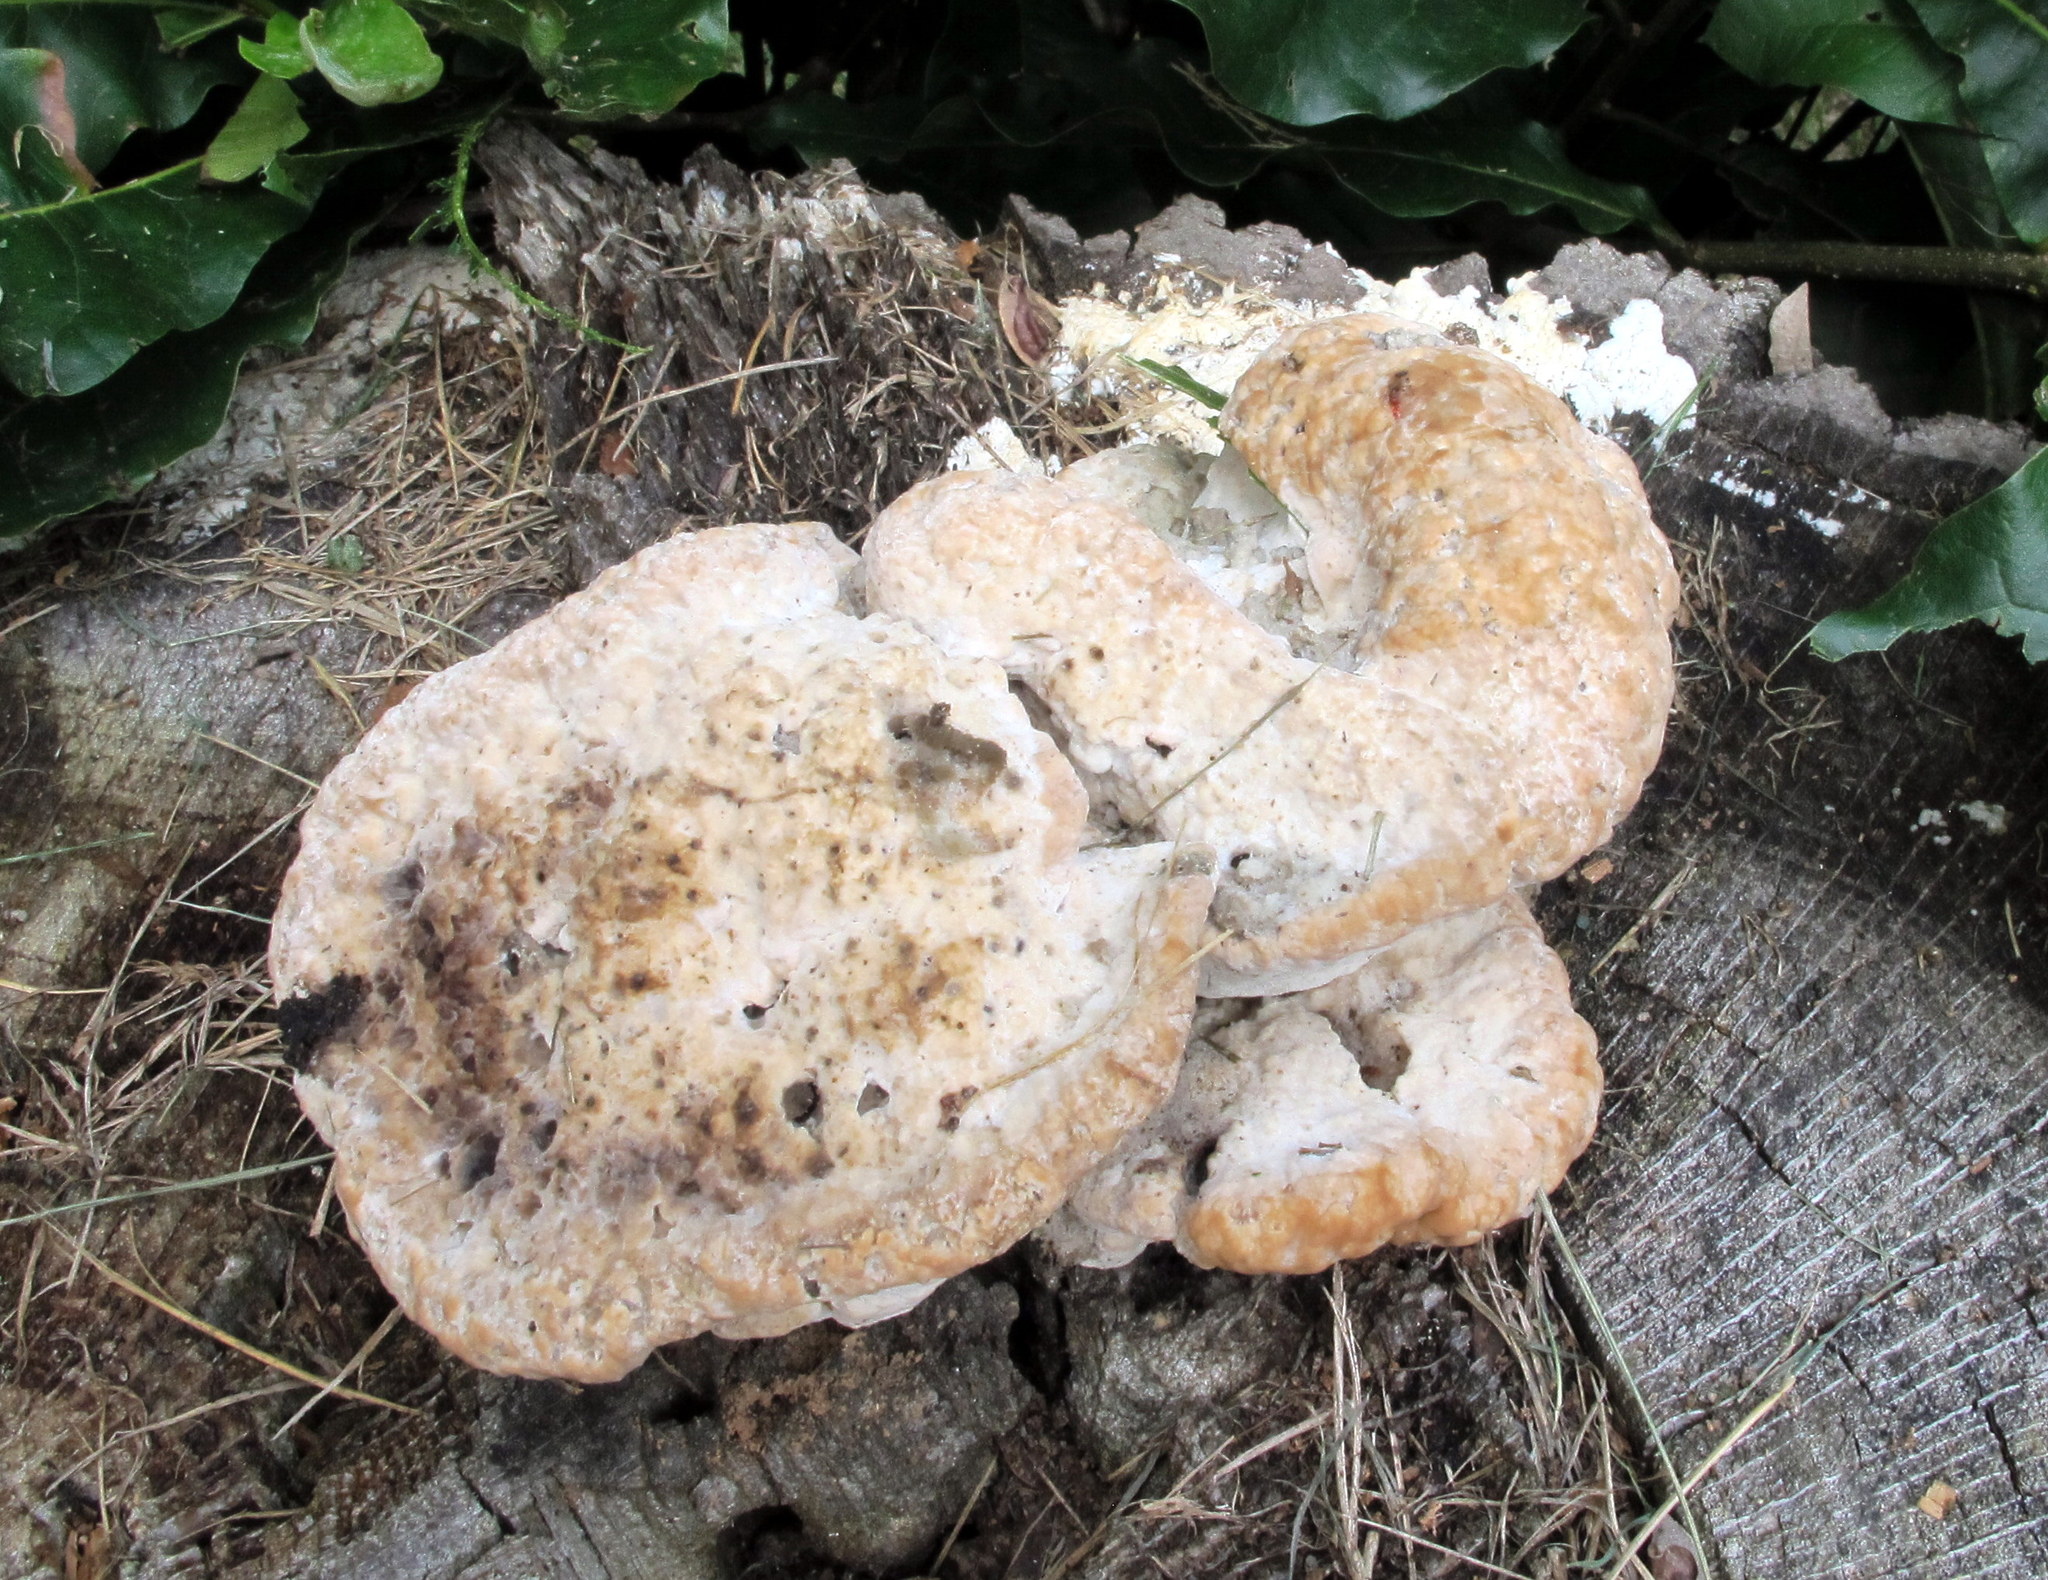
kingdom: Fungi
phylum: Basidiomycota
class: Agaricomycetes
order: Polyporales
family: Fomitopsidaceae
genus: Niveoporofomes
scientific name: Niveoporofomes spraguei
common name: Green cheese polypore
